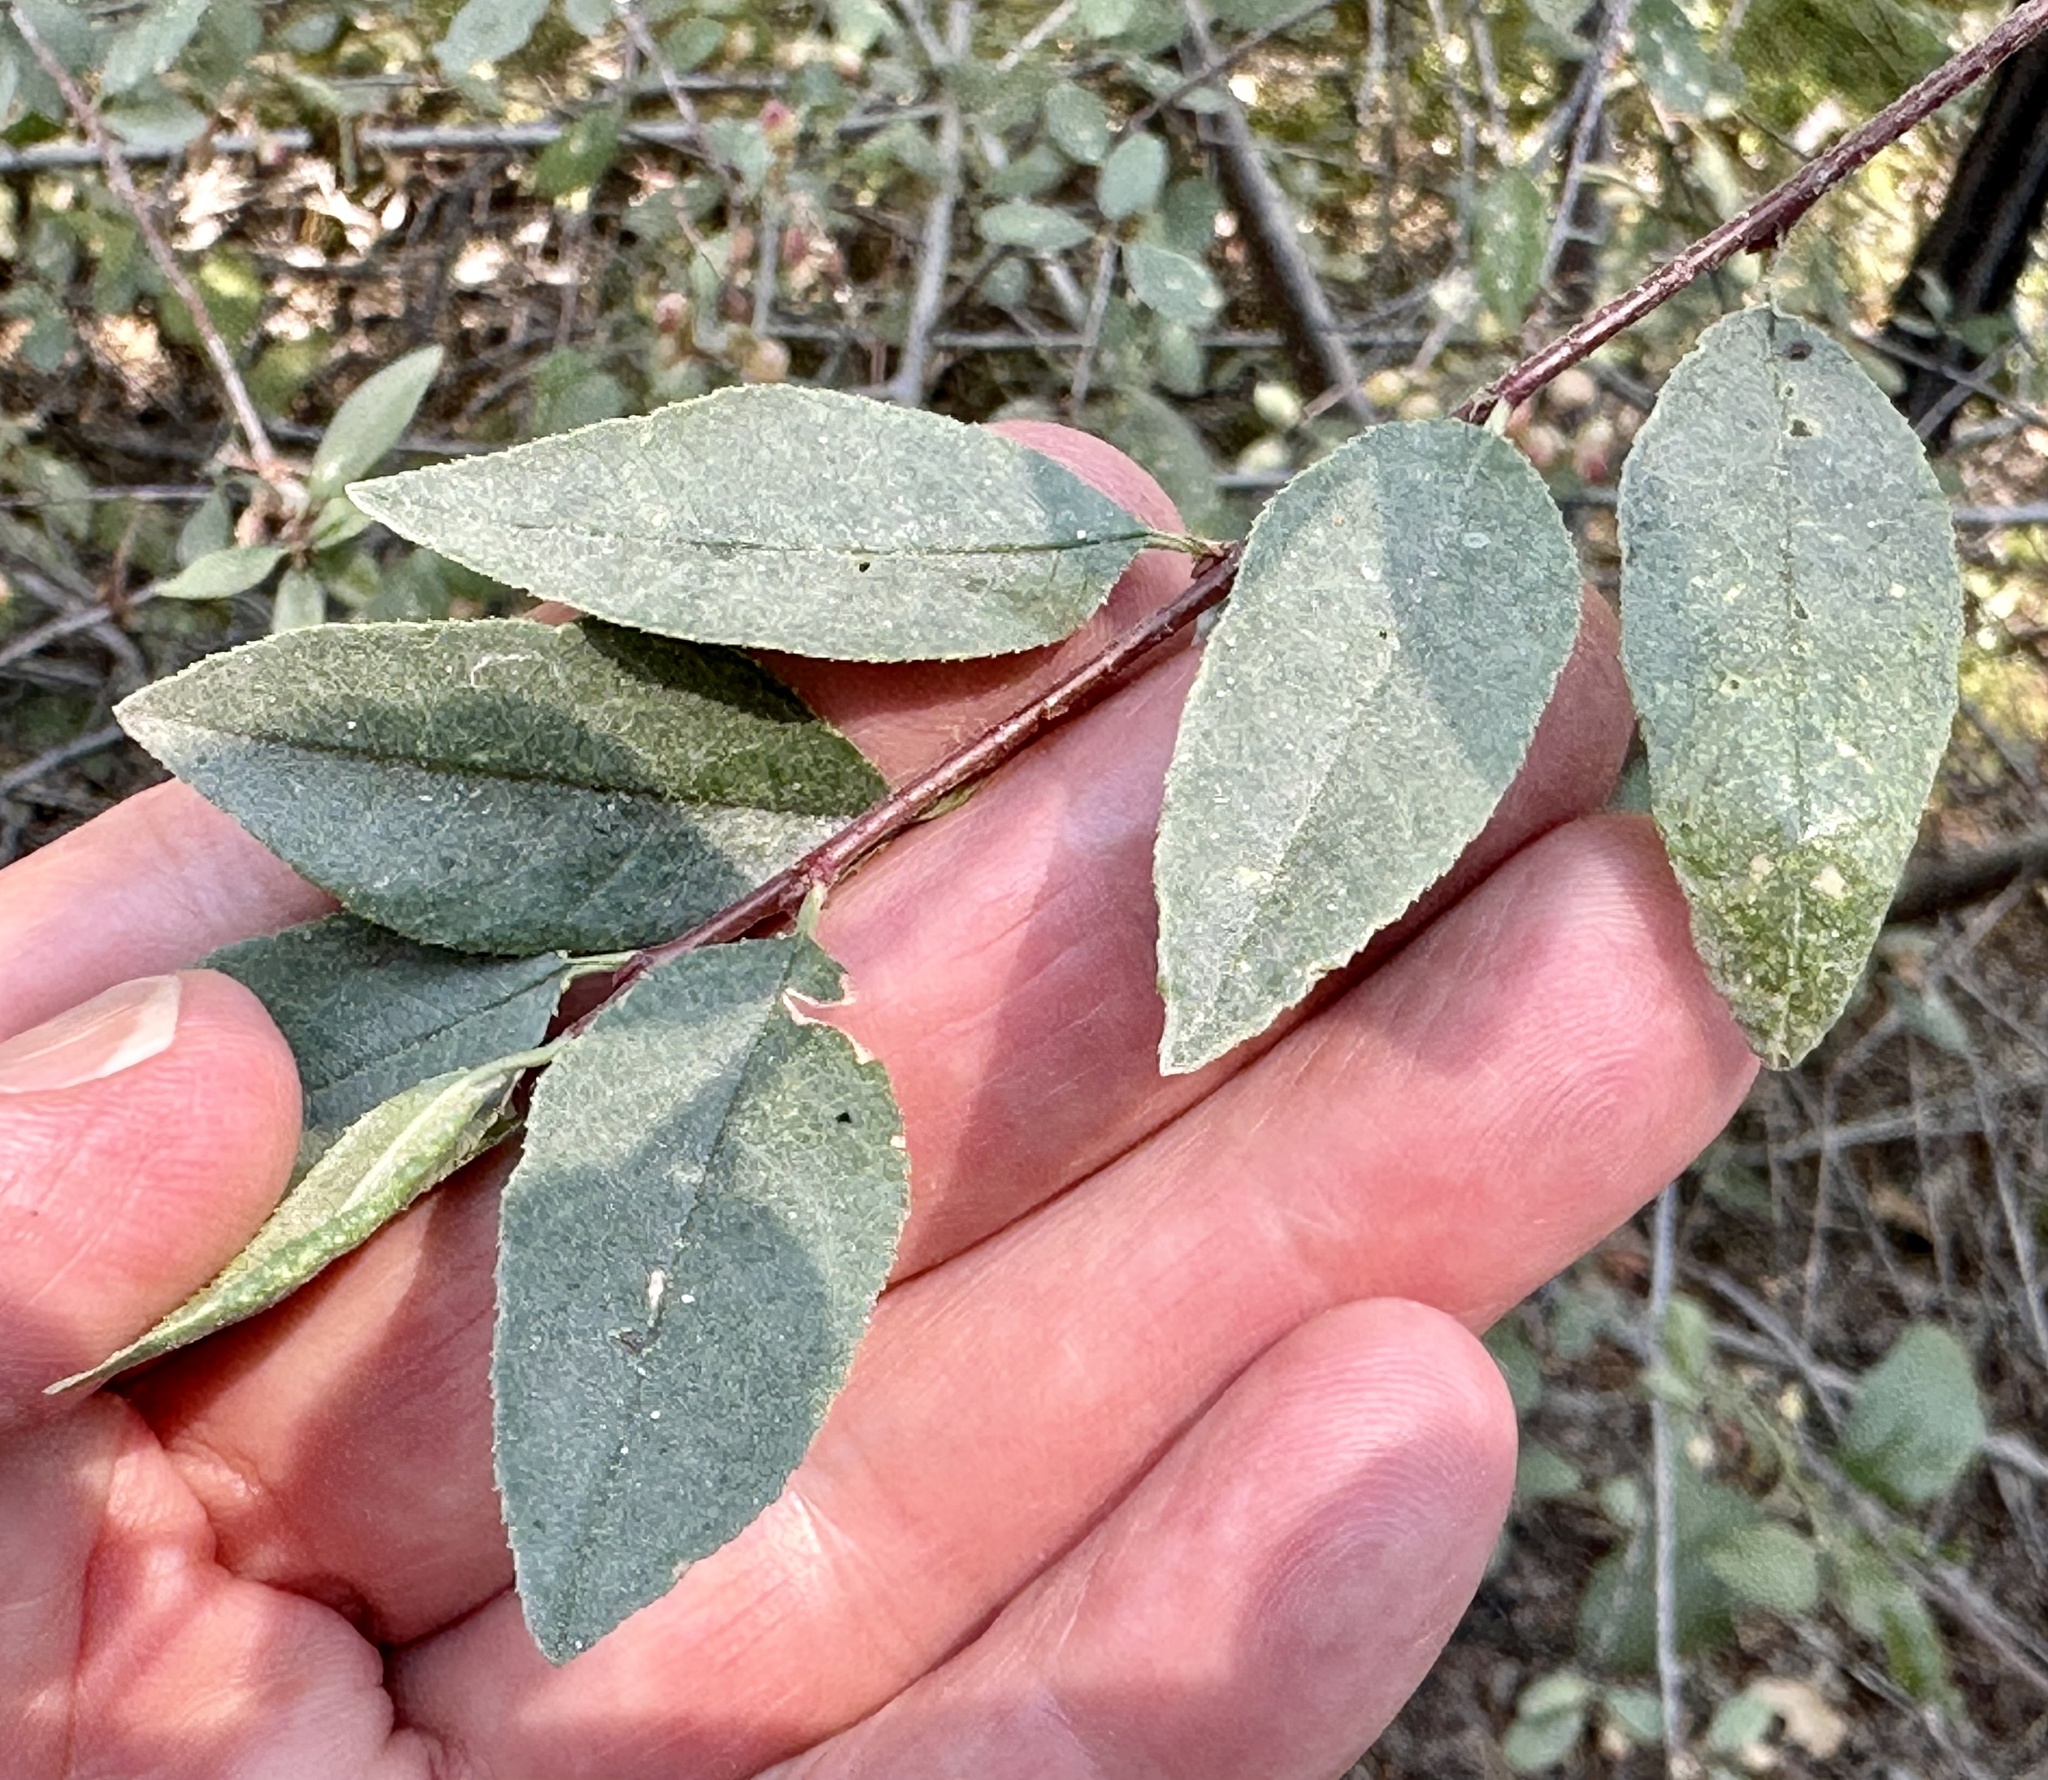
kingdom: Plantae
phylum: Tracheophyta
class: Magnoliopsida
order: Rosales
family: Rosaceae
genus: Prunus
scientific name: Prunus emarginata
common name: Bitter cherry
